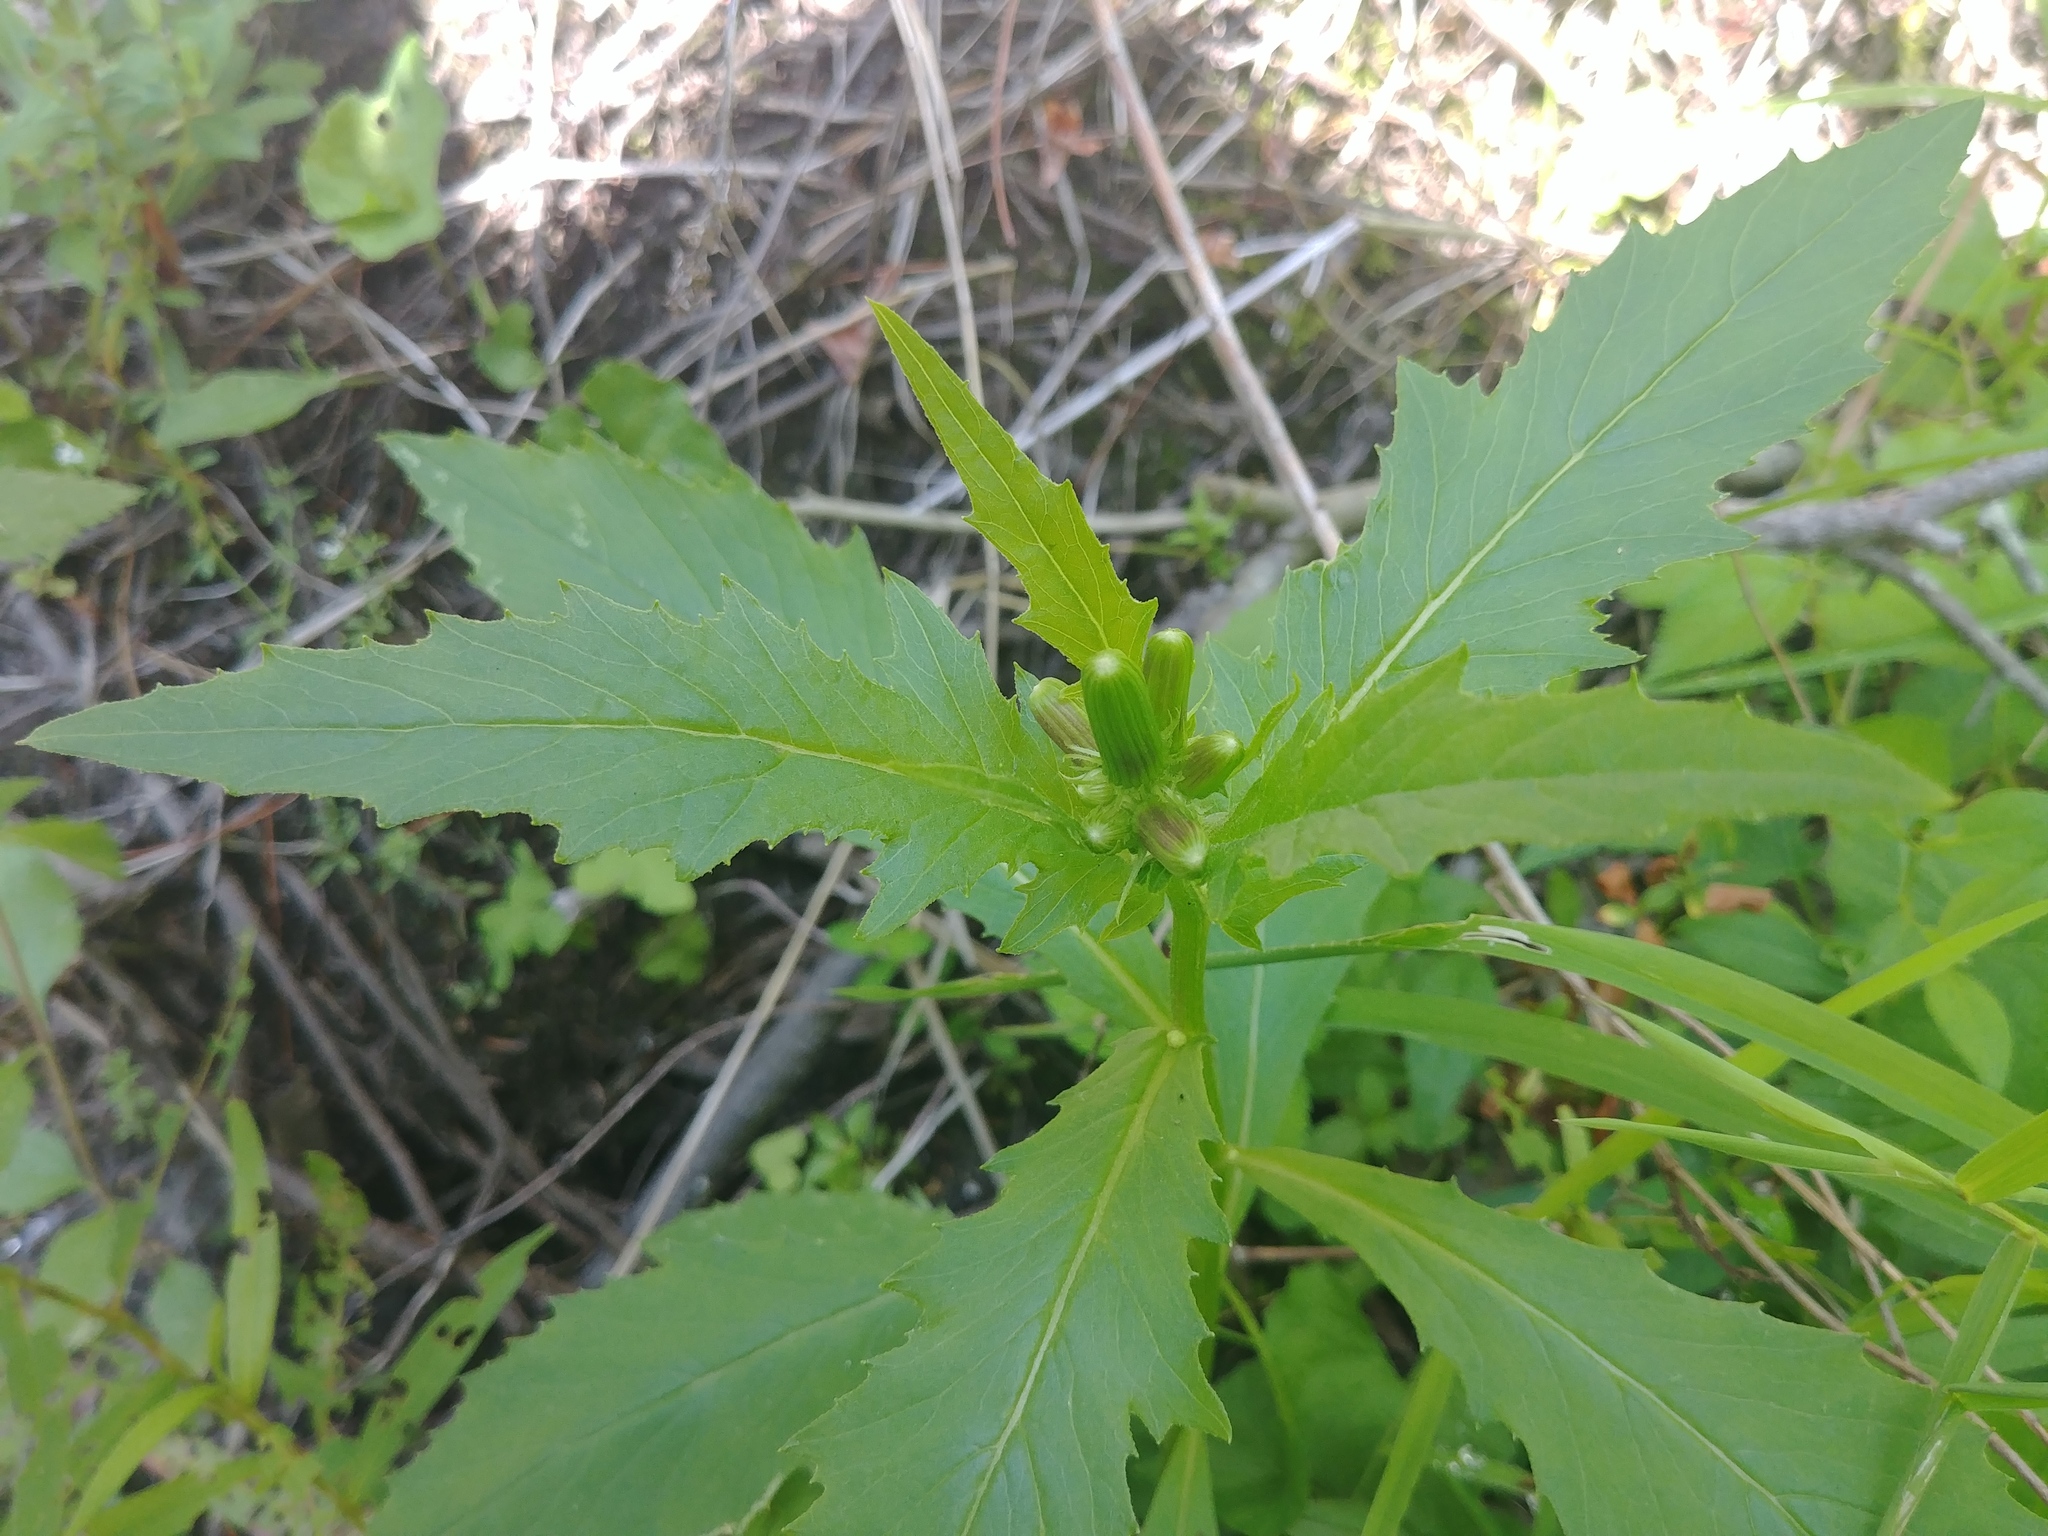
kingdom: Plantae
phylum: Tracheophyta
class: Magnoliopsida
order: Asterales
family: Asteraceae
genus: Erechtites
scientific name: Erechtites hieraciifolius
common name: American burnweed
